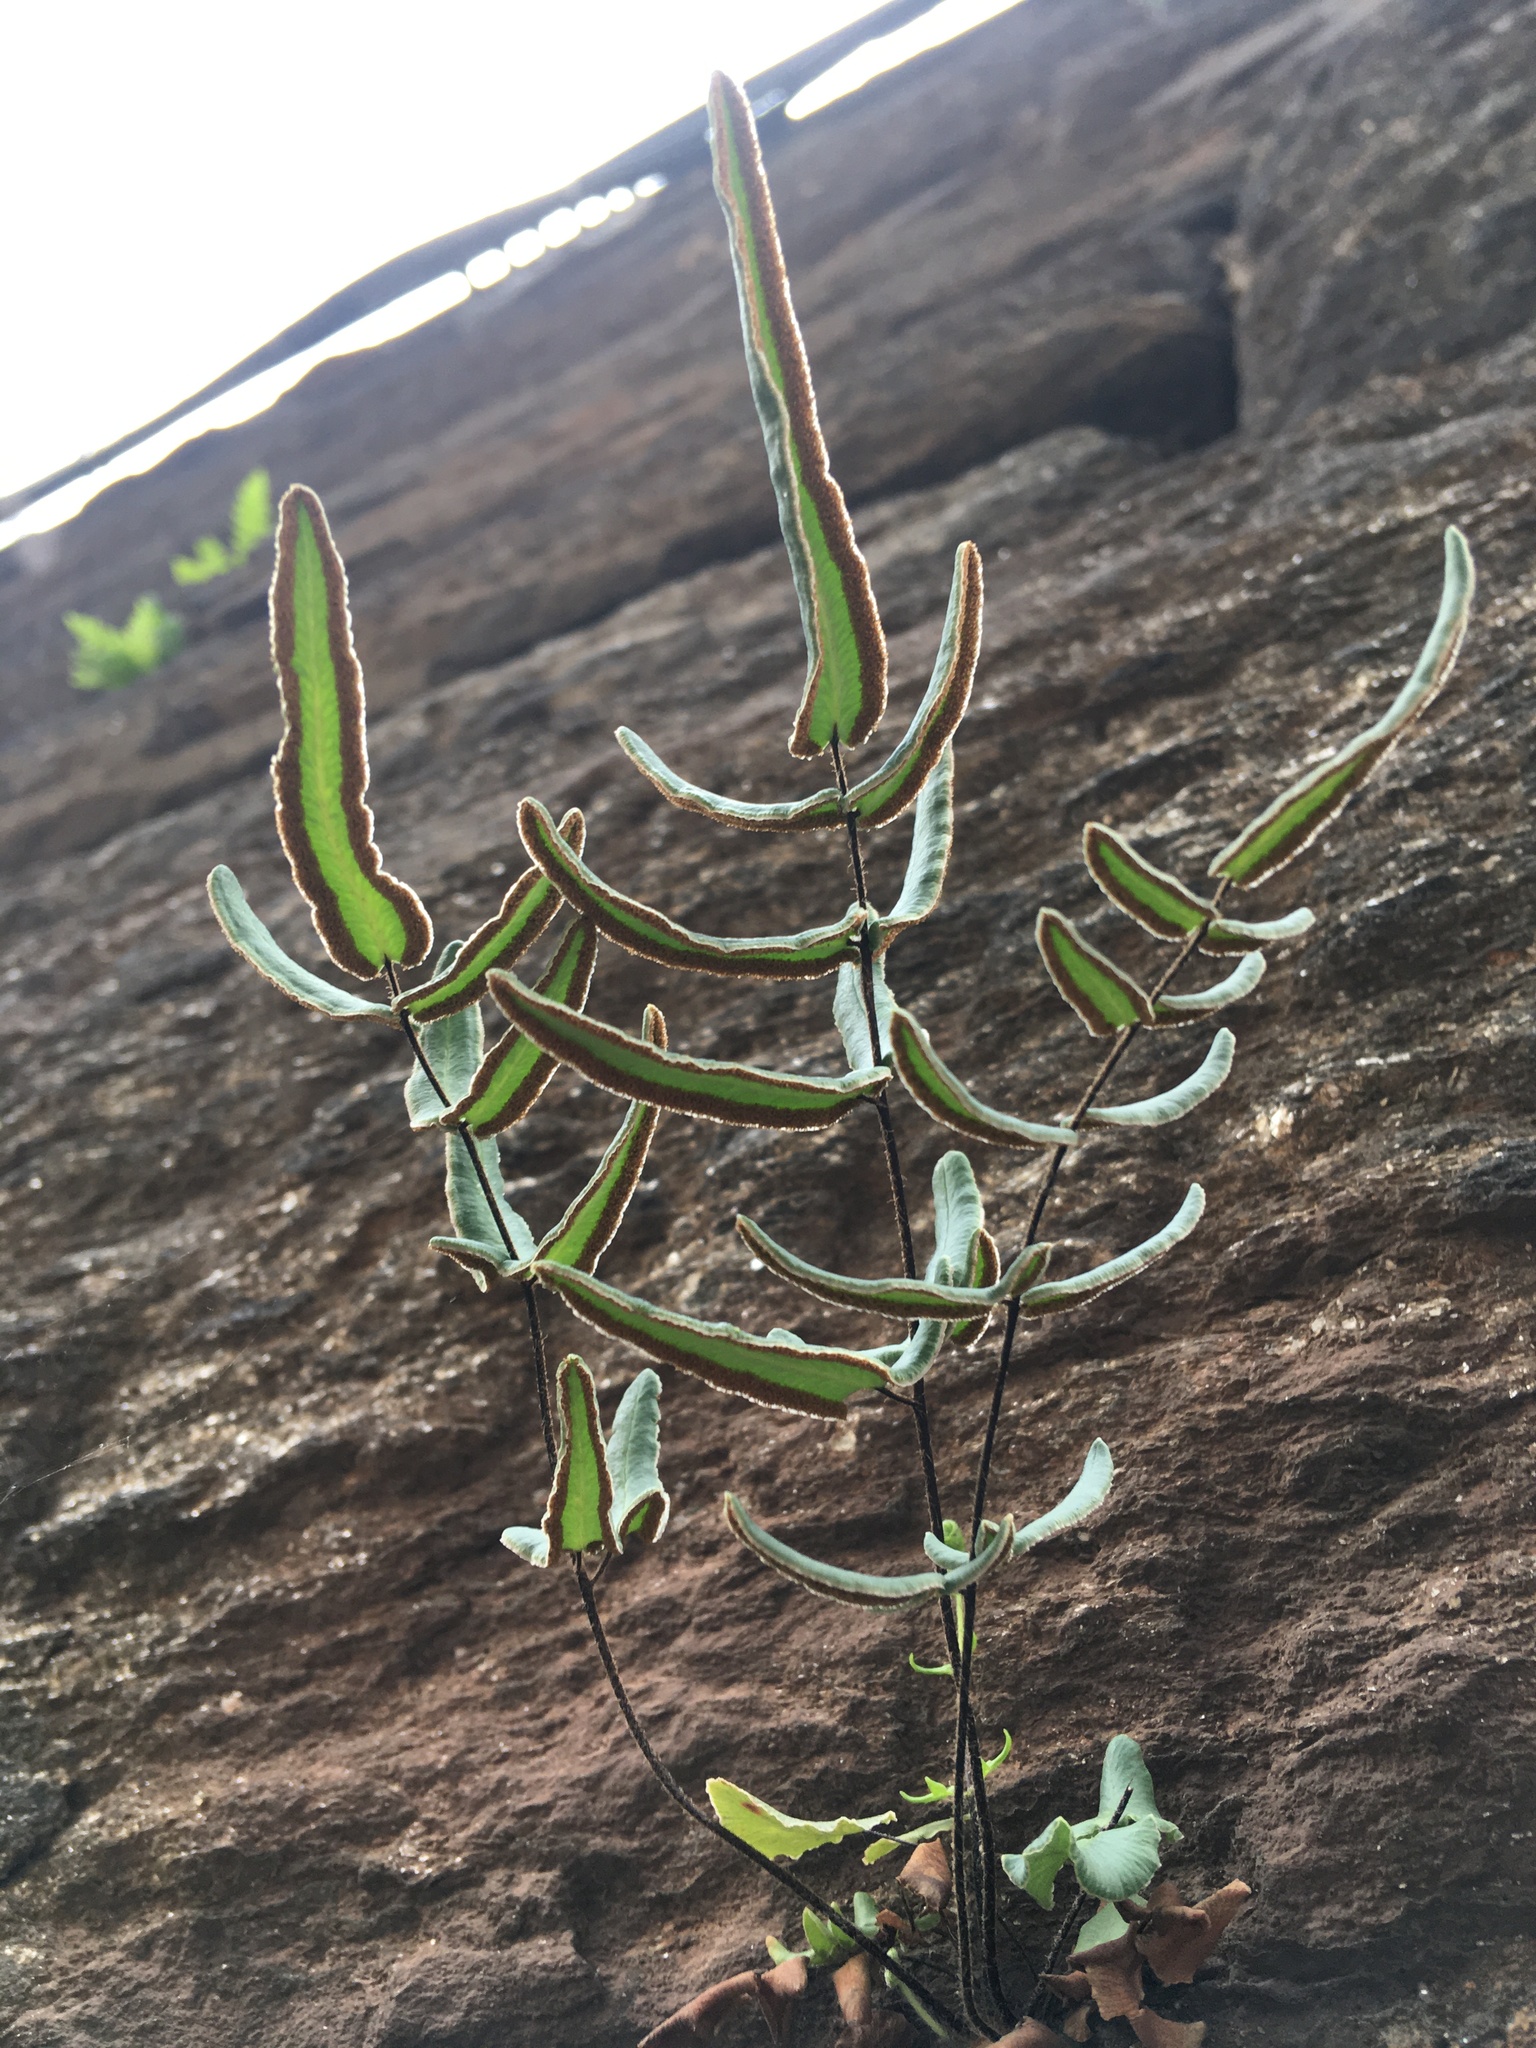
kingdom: Plantae
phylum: Tracheophyta
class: Polypodiopsida
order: Polypodiales
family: Pteridaceae
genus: Pellaea
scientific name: Pellaea atropurpurea
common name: Hairy cliffbrake
